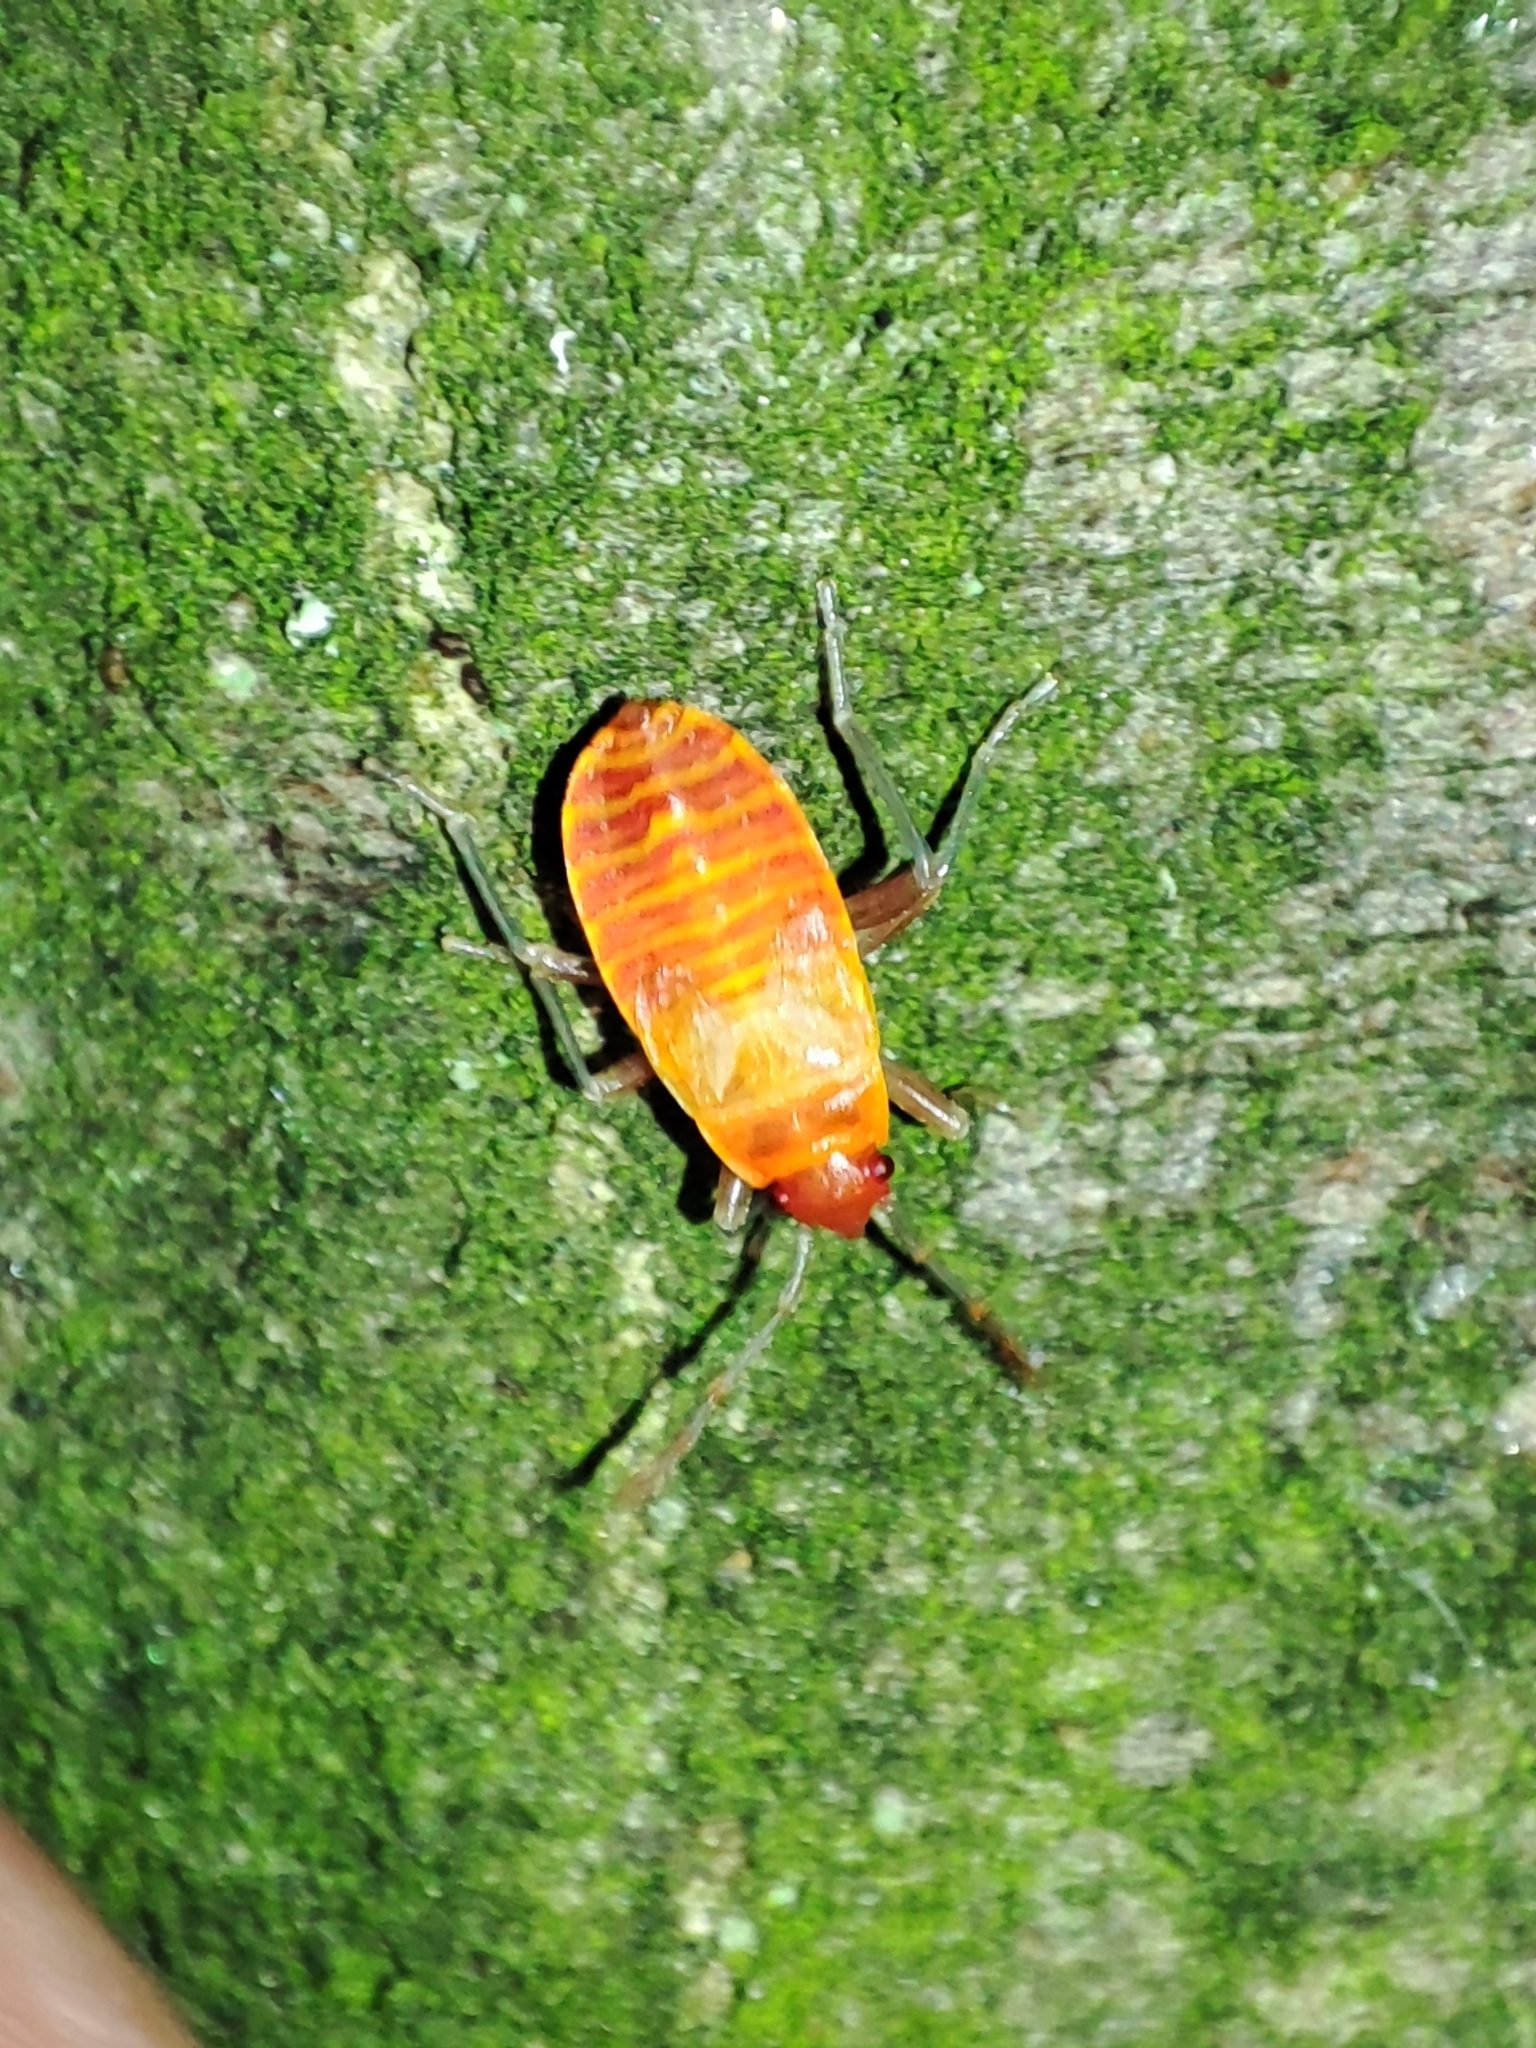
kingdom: Animalia
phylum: Arthropoda
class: Insecta
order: Hemiptera
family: Pyrrhocoridae
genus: Pyrrhocoris
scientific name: Pyrrhocoris apterus
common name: Firebug
